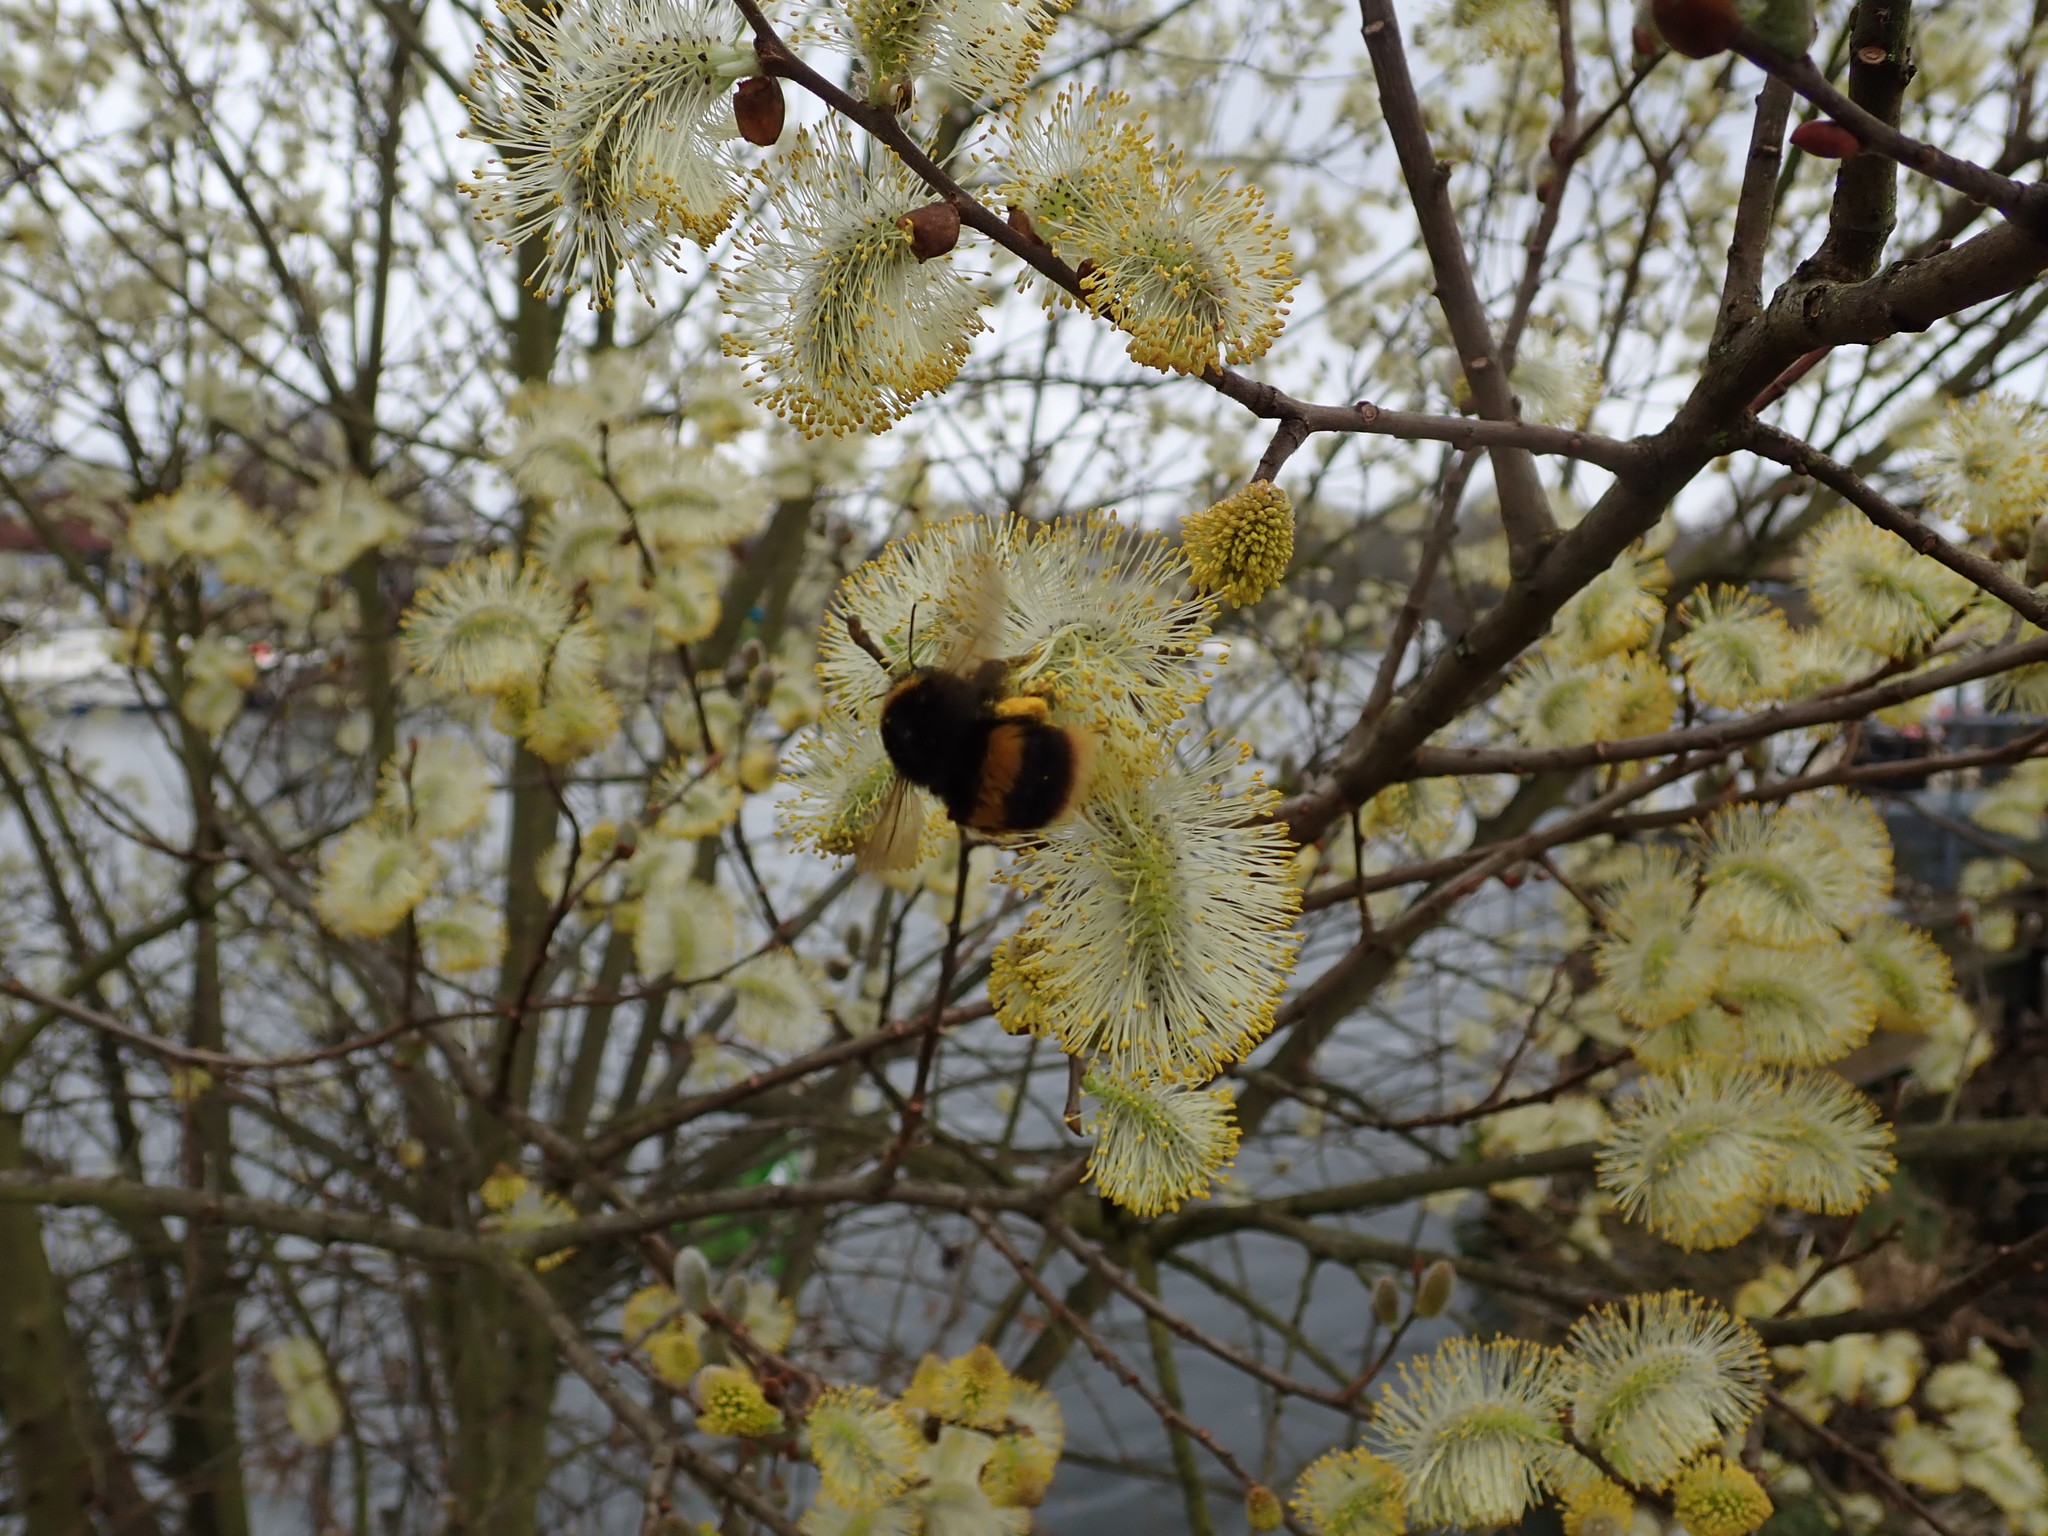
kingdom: Animalia
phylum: Arthropoda
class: Insecta
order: Hymenoptera
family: Apidae
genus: Bombus
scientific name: Bombus terrestris
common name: Buff-tailed bumblebee
